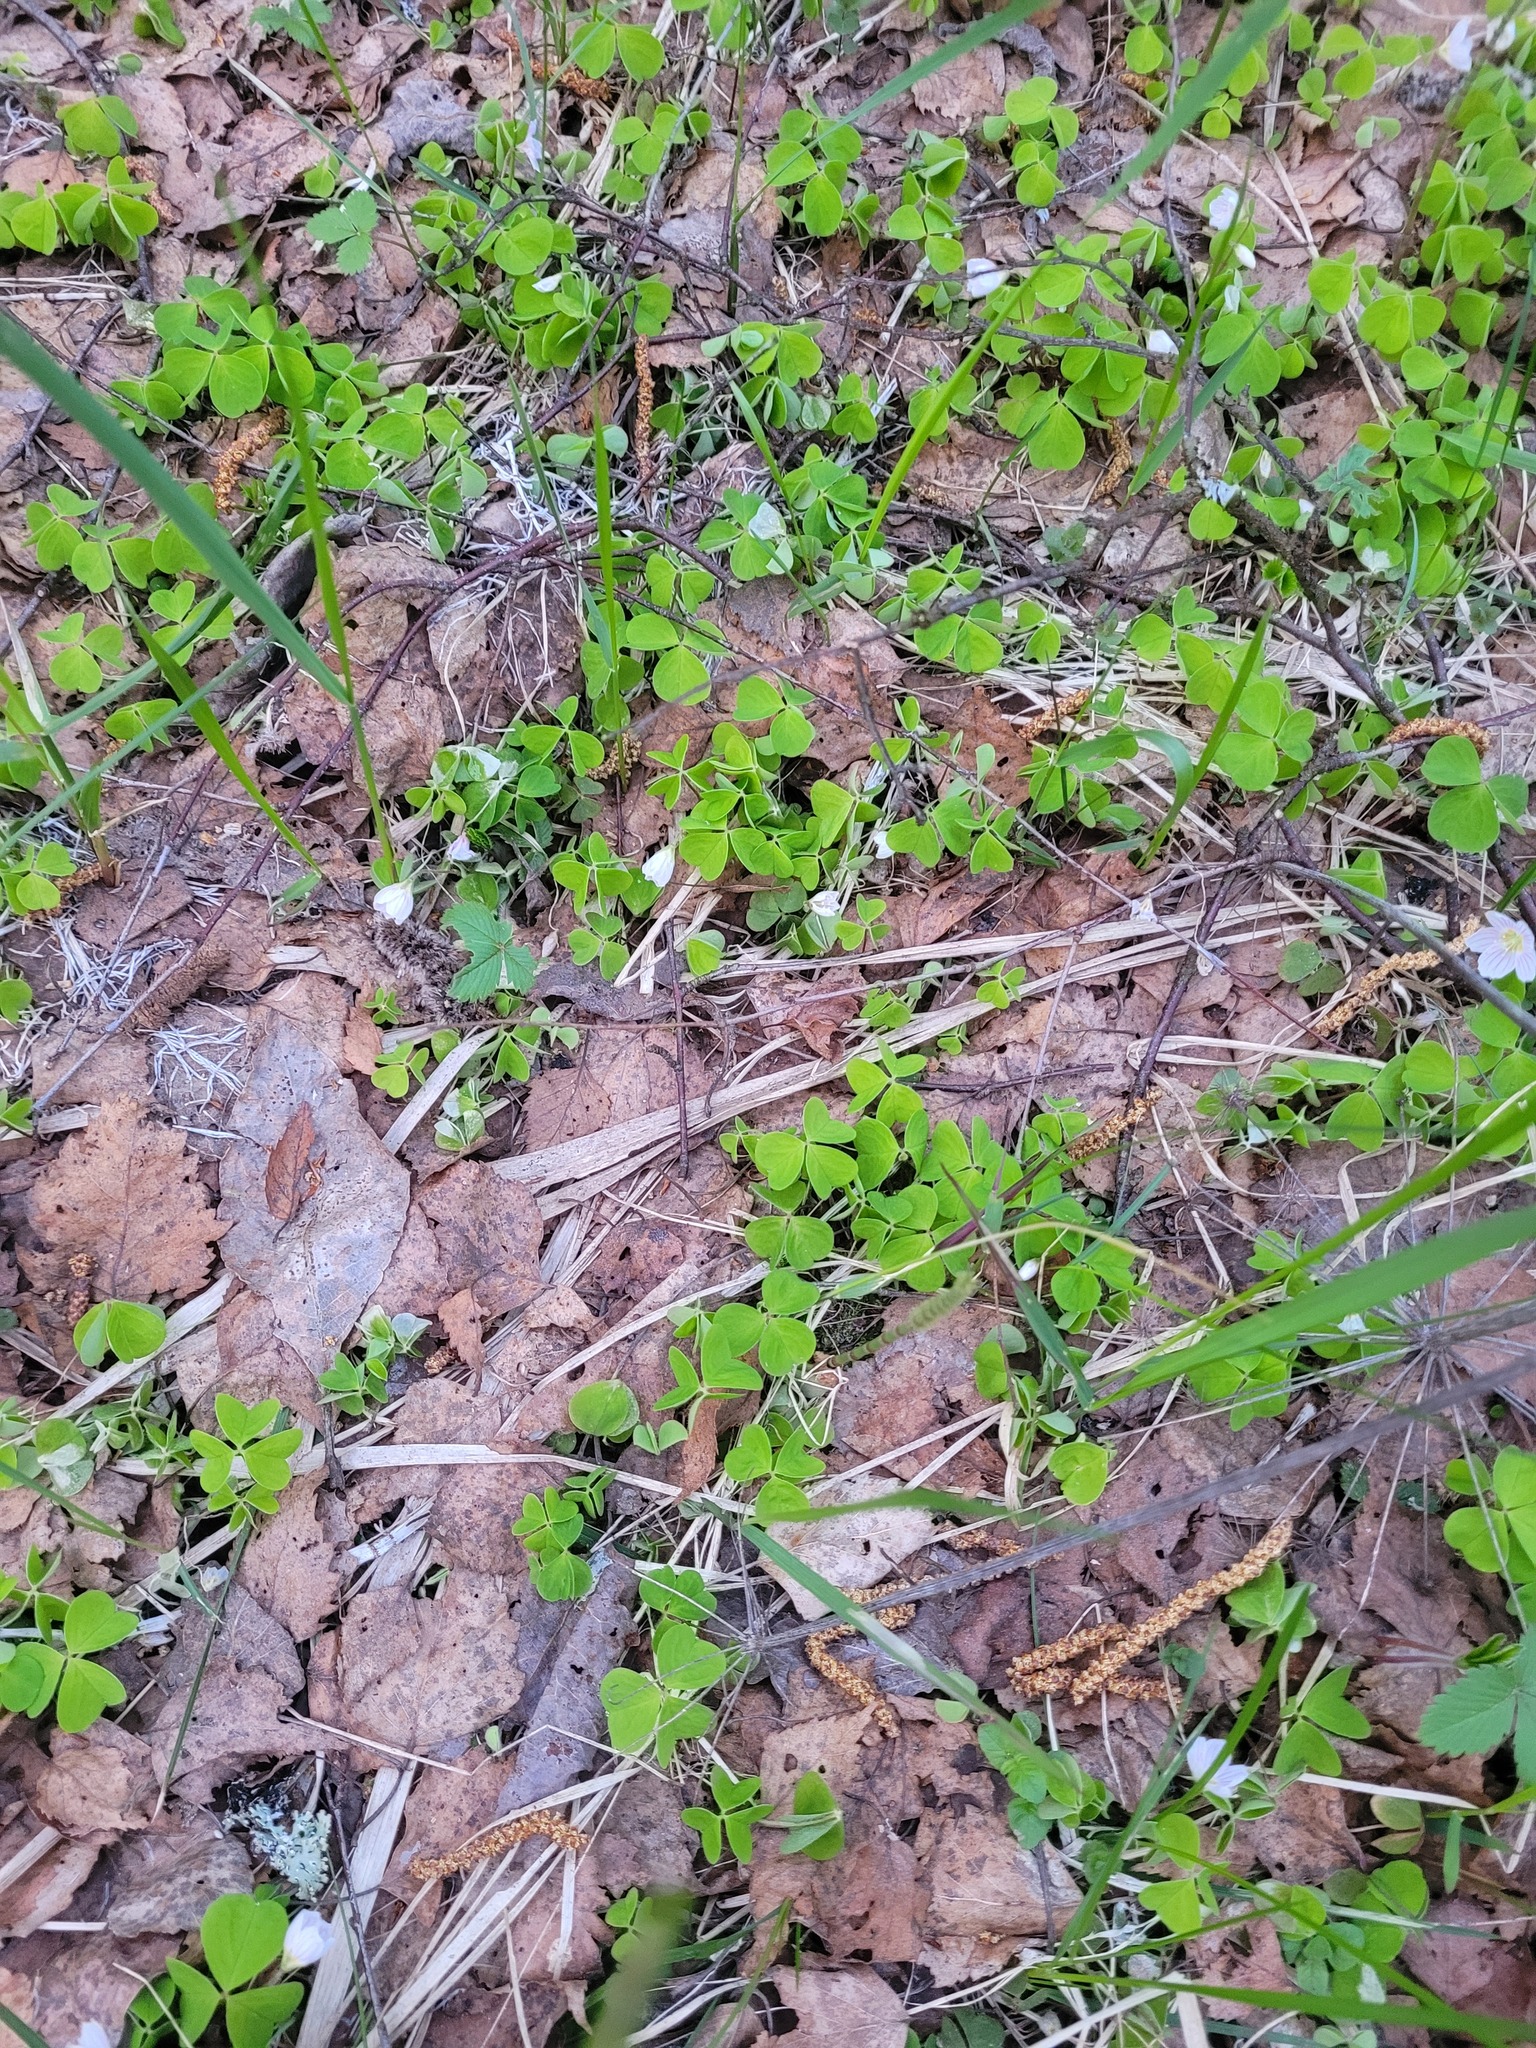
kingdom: Plantae
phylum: Tracheophyta
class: Magnoliopsida
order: Oxalidales
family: Oxalidaceae
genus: Oxalis
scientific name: Oxalis acetosella
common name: Wood-sorrel
